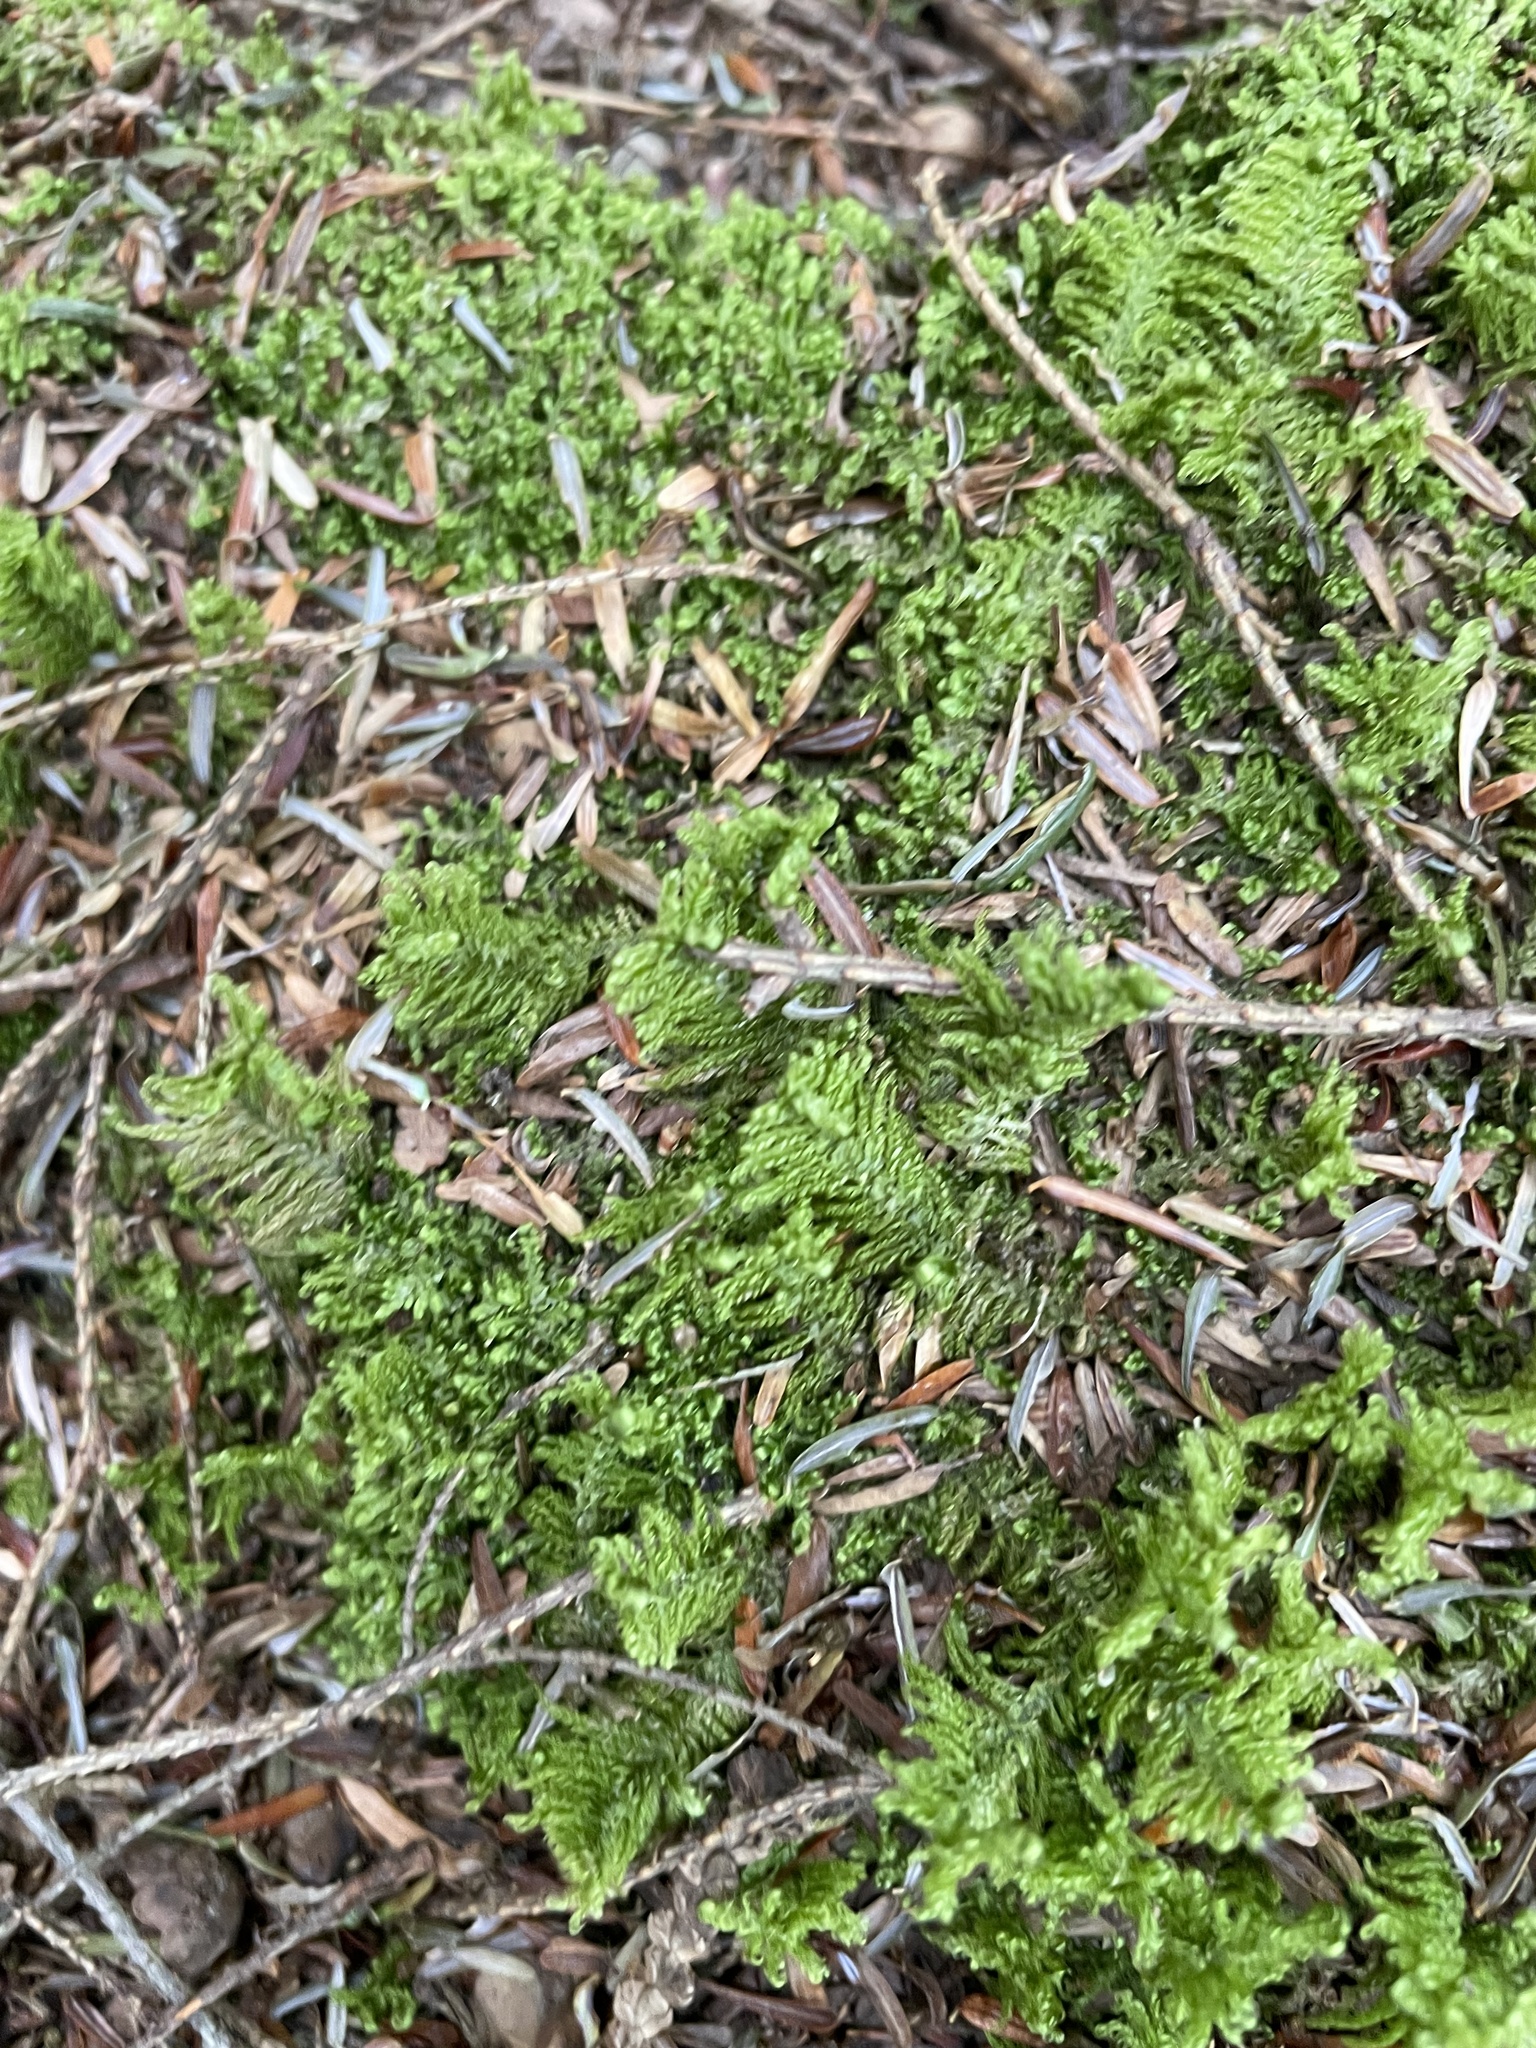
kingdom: Plantae
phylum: Bryophyta
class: Bryopsida
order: Hypnales
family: Pylaisiaceae
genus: Ptilium
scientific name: Ptilium crista-castrensis
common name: Knight's plume moss
